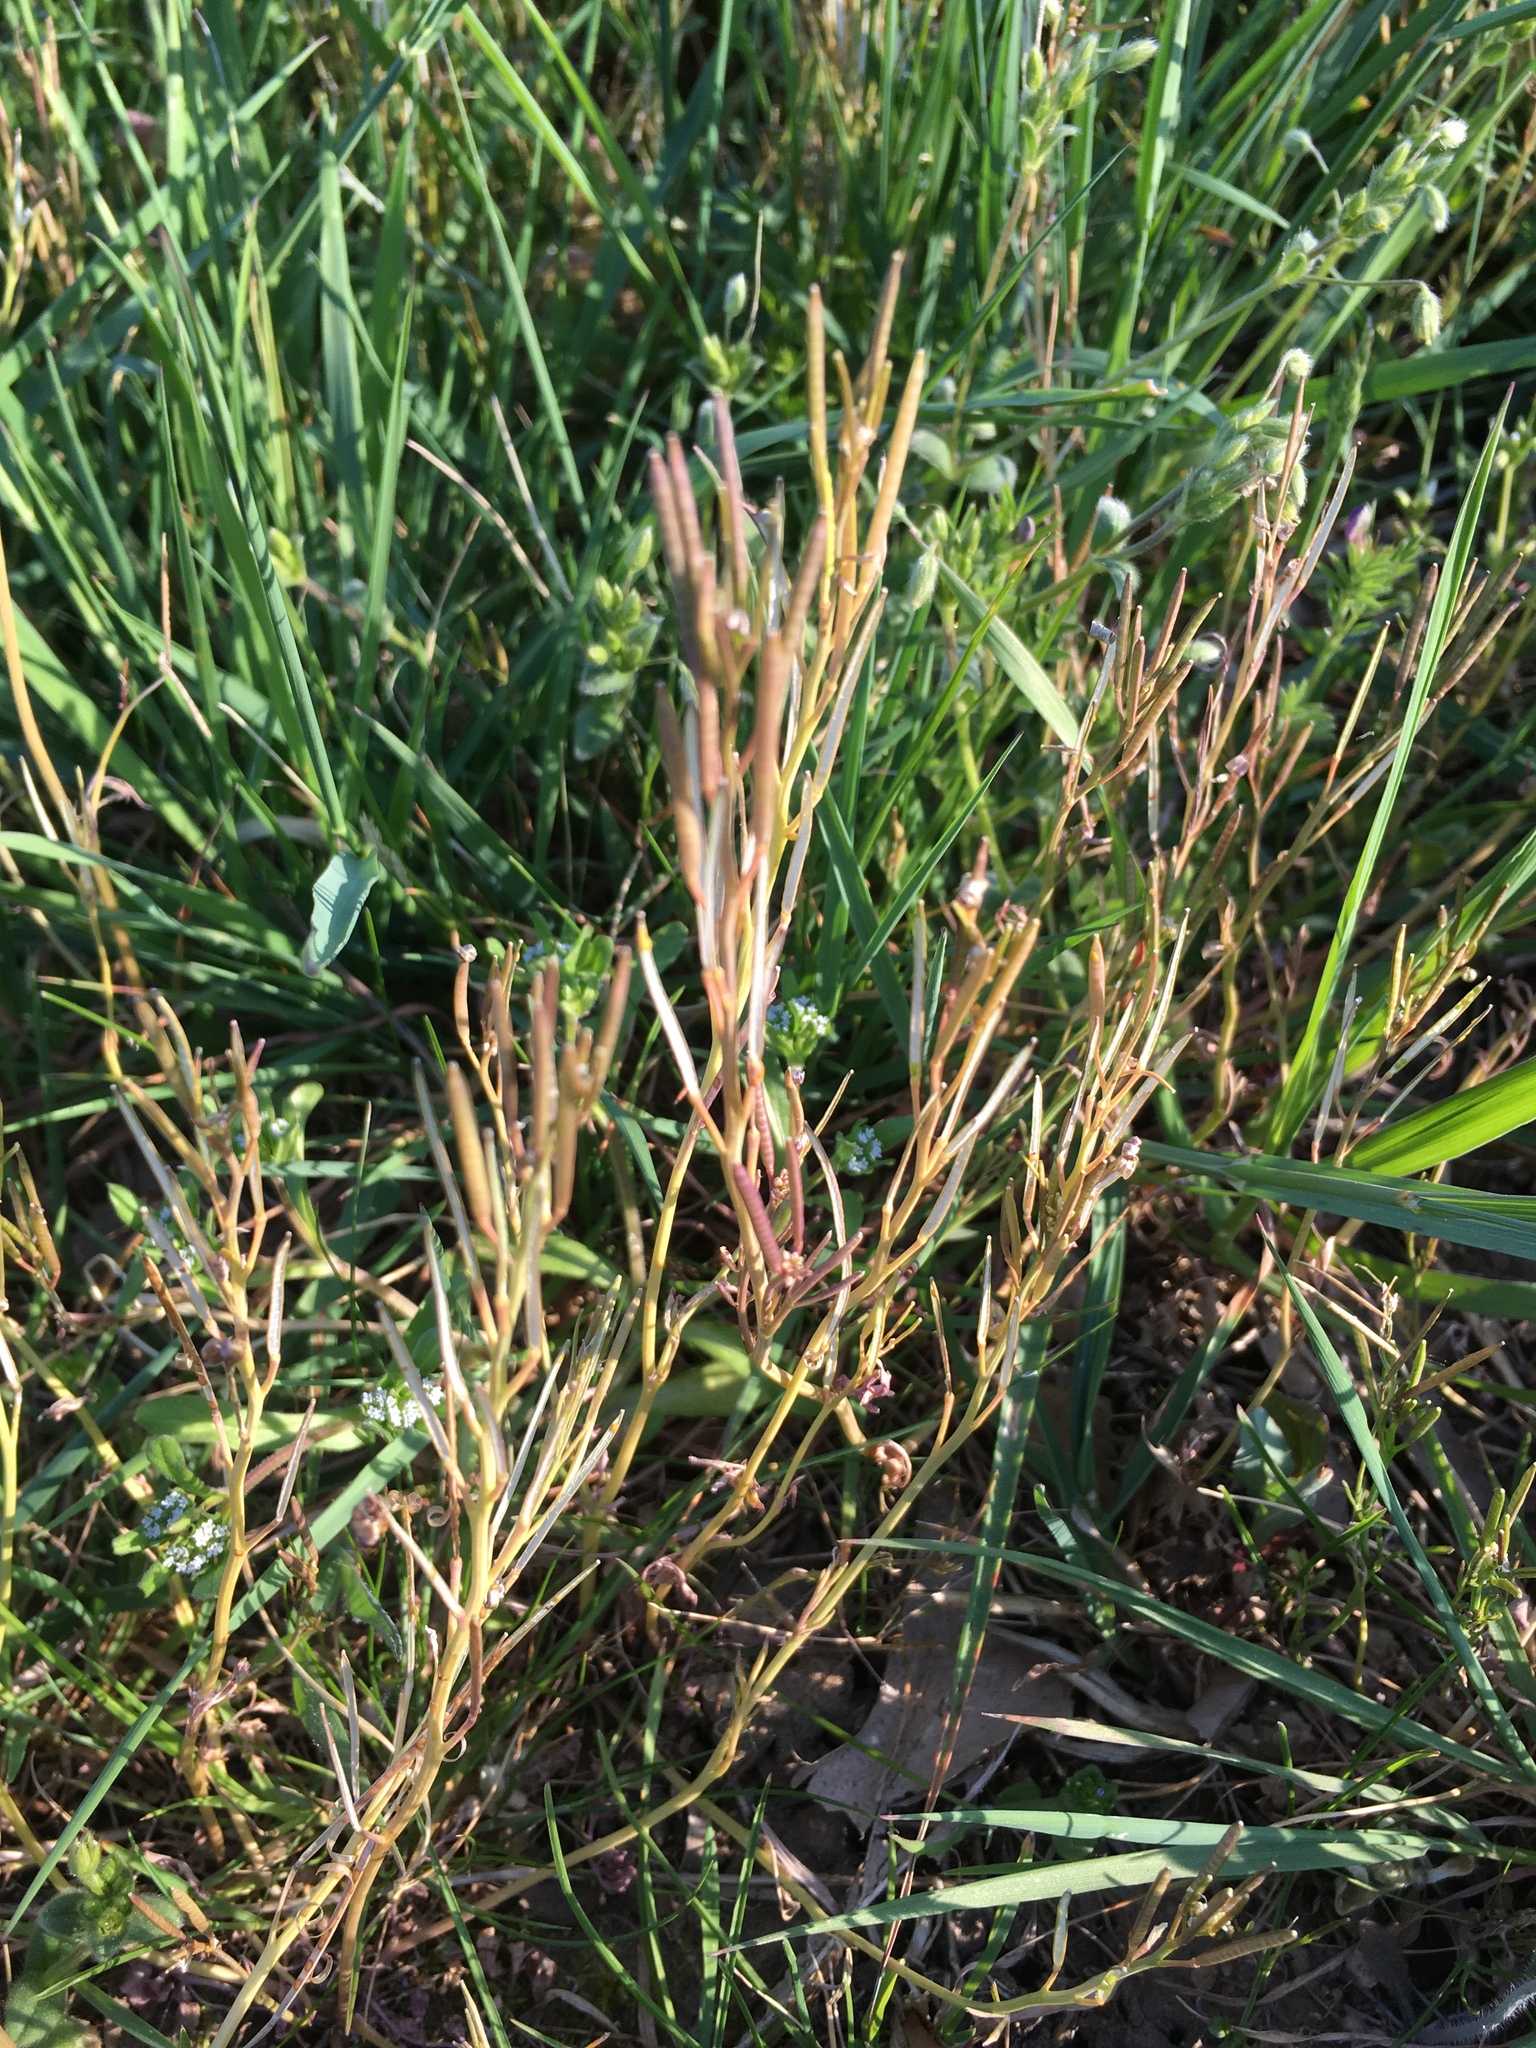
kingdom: Plantae
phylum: Tracheophyta
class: Magnoliopsida
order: Brassicales
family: Brassicaceae
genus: Cardamine
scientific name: Cardamine hirsuta
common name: Hairy bittercress
